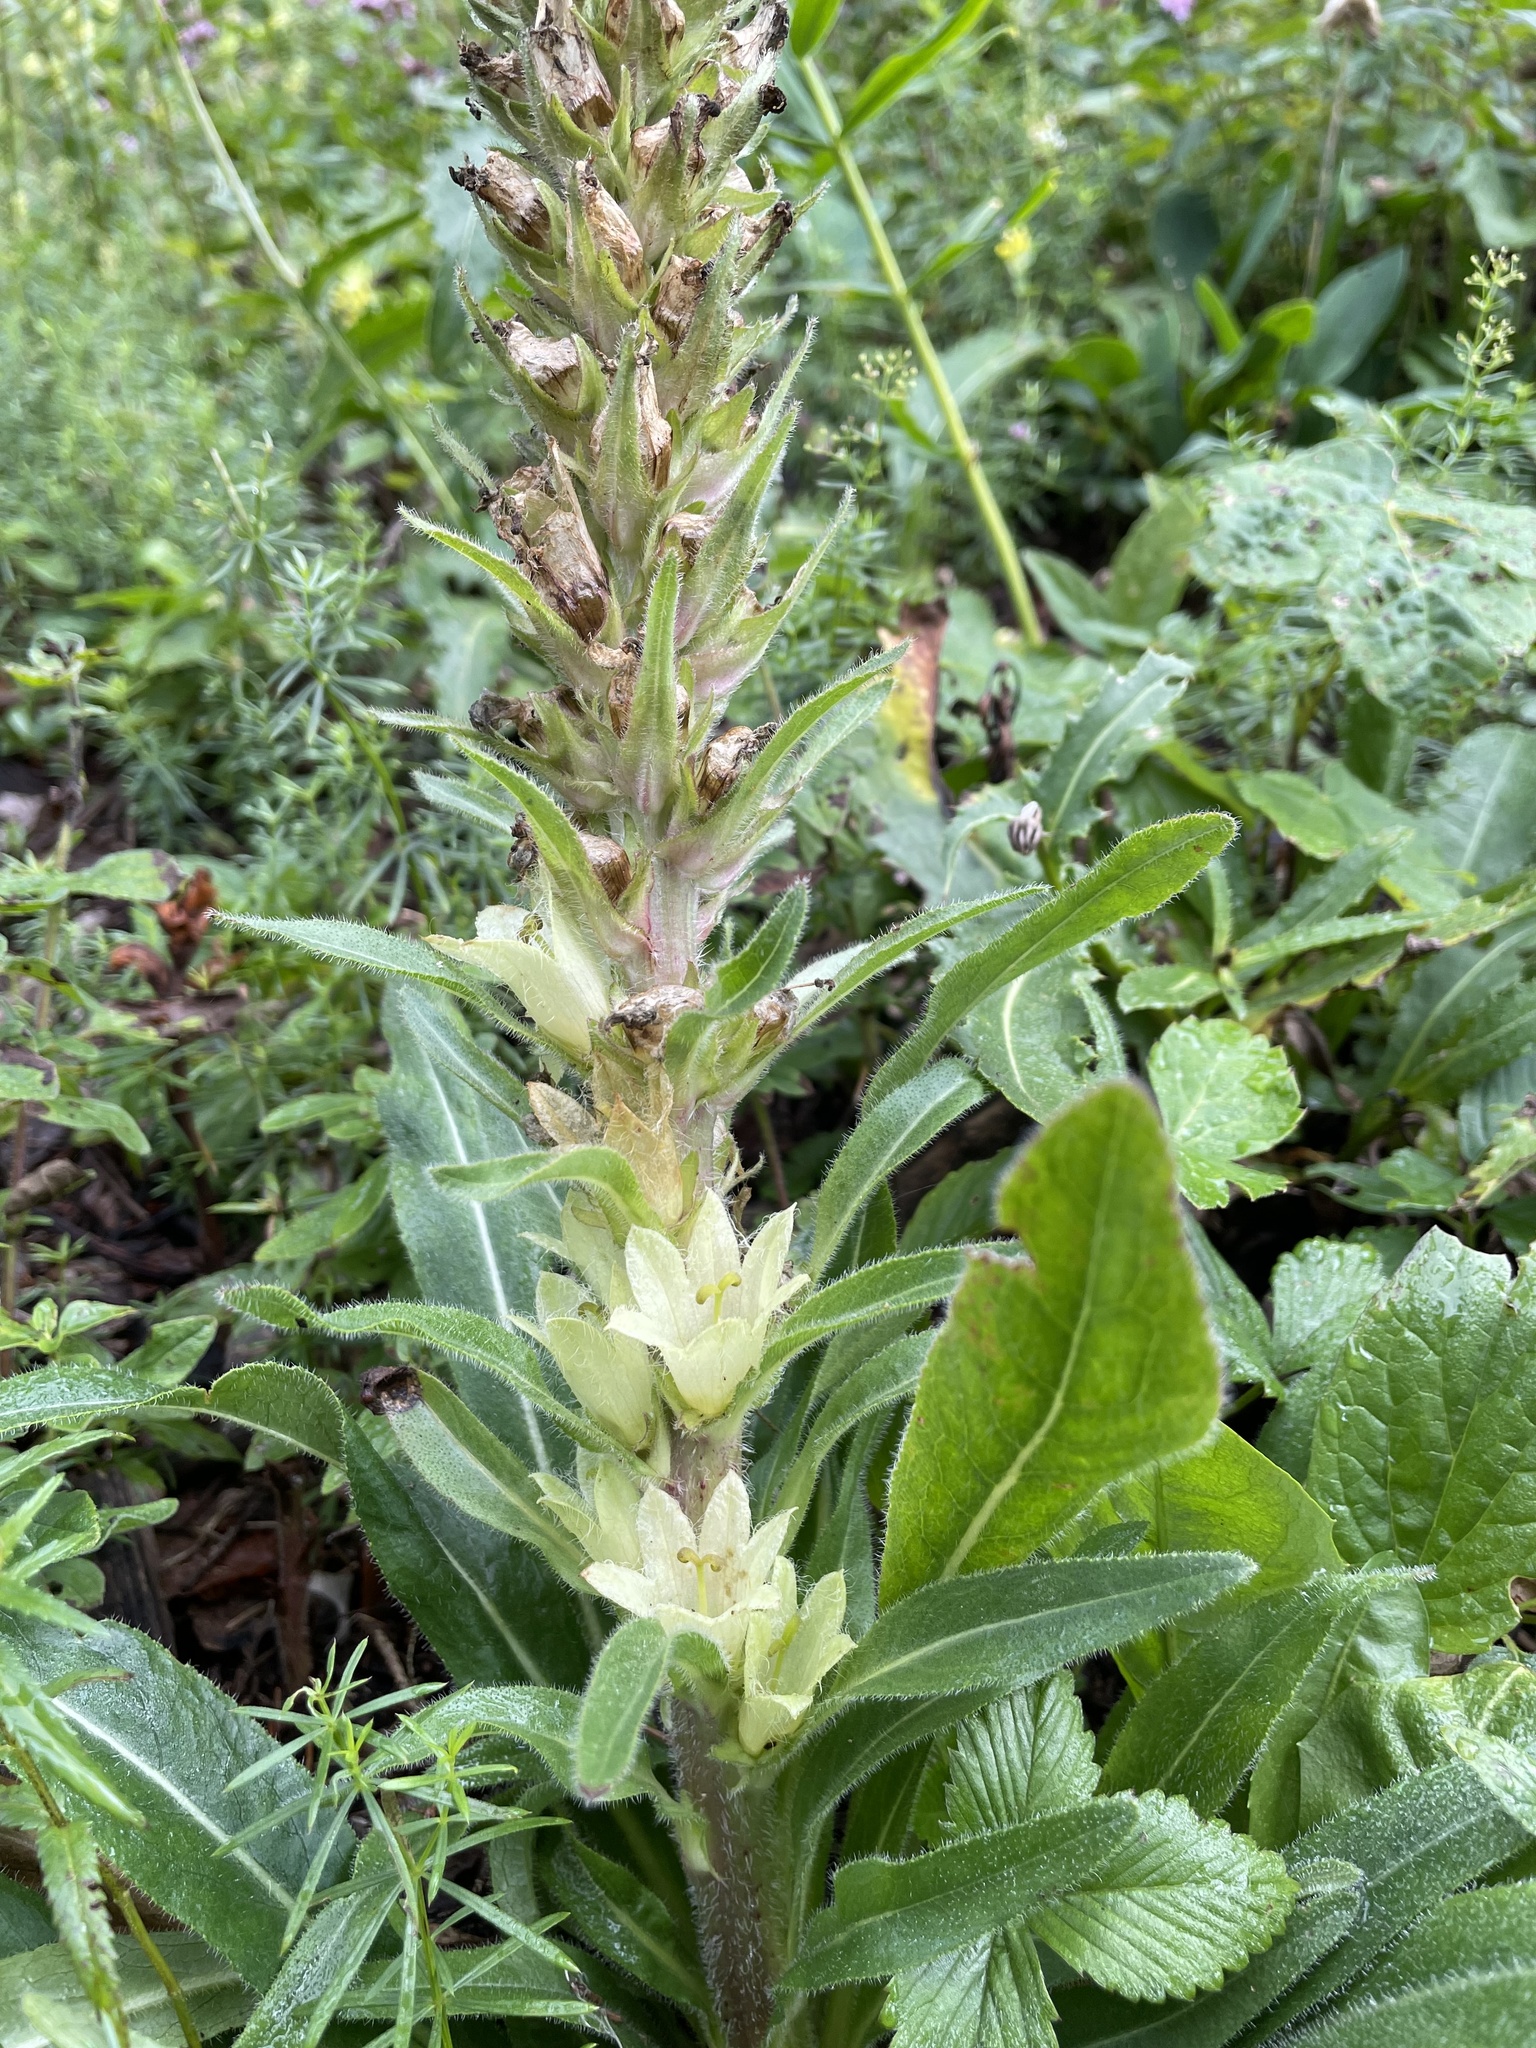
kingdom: Plantae
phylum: Tracheophyta
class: Magnoliopsida
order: Asterales
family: Campanulaceae
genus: Campanula
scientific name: Campanula thyrsoides
